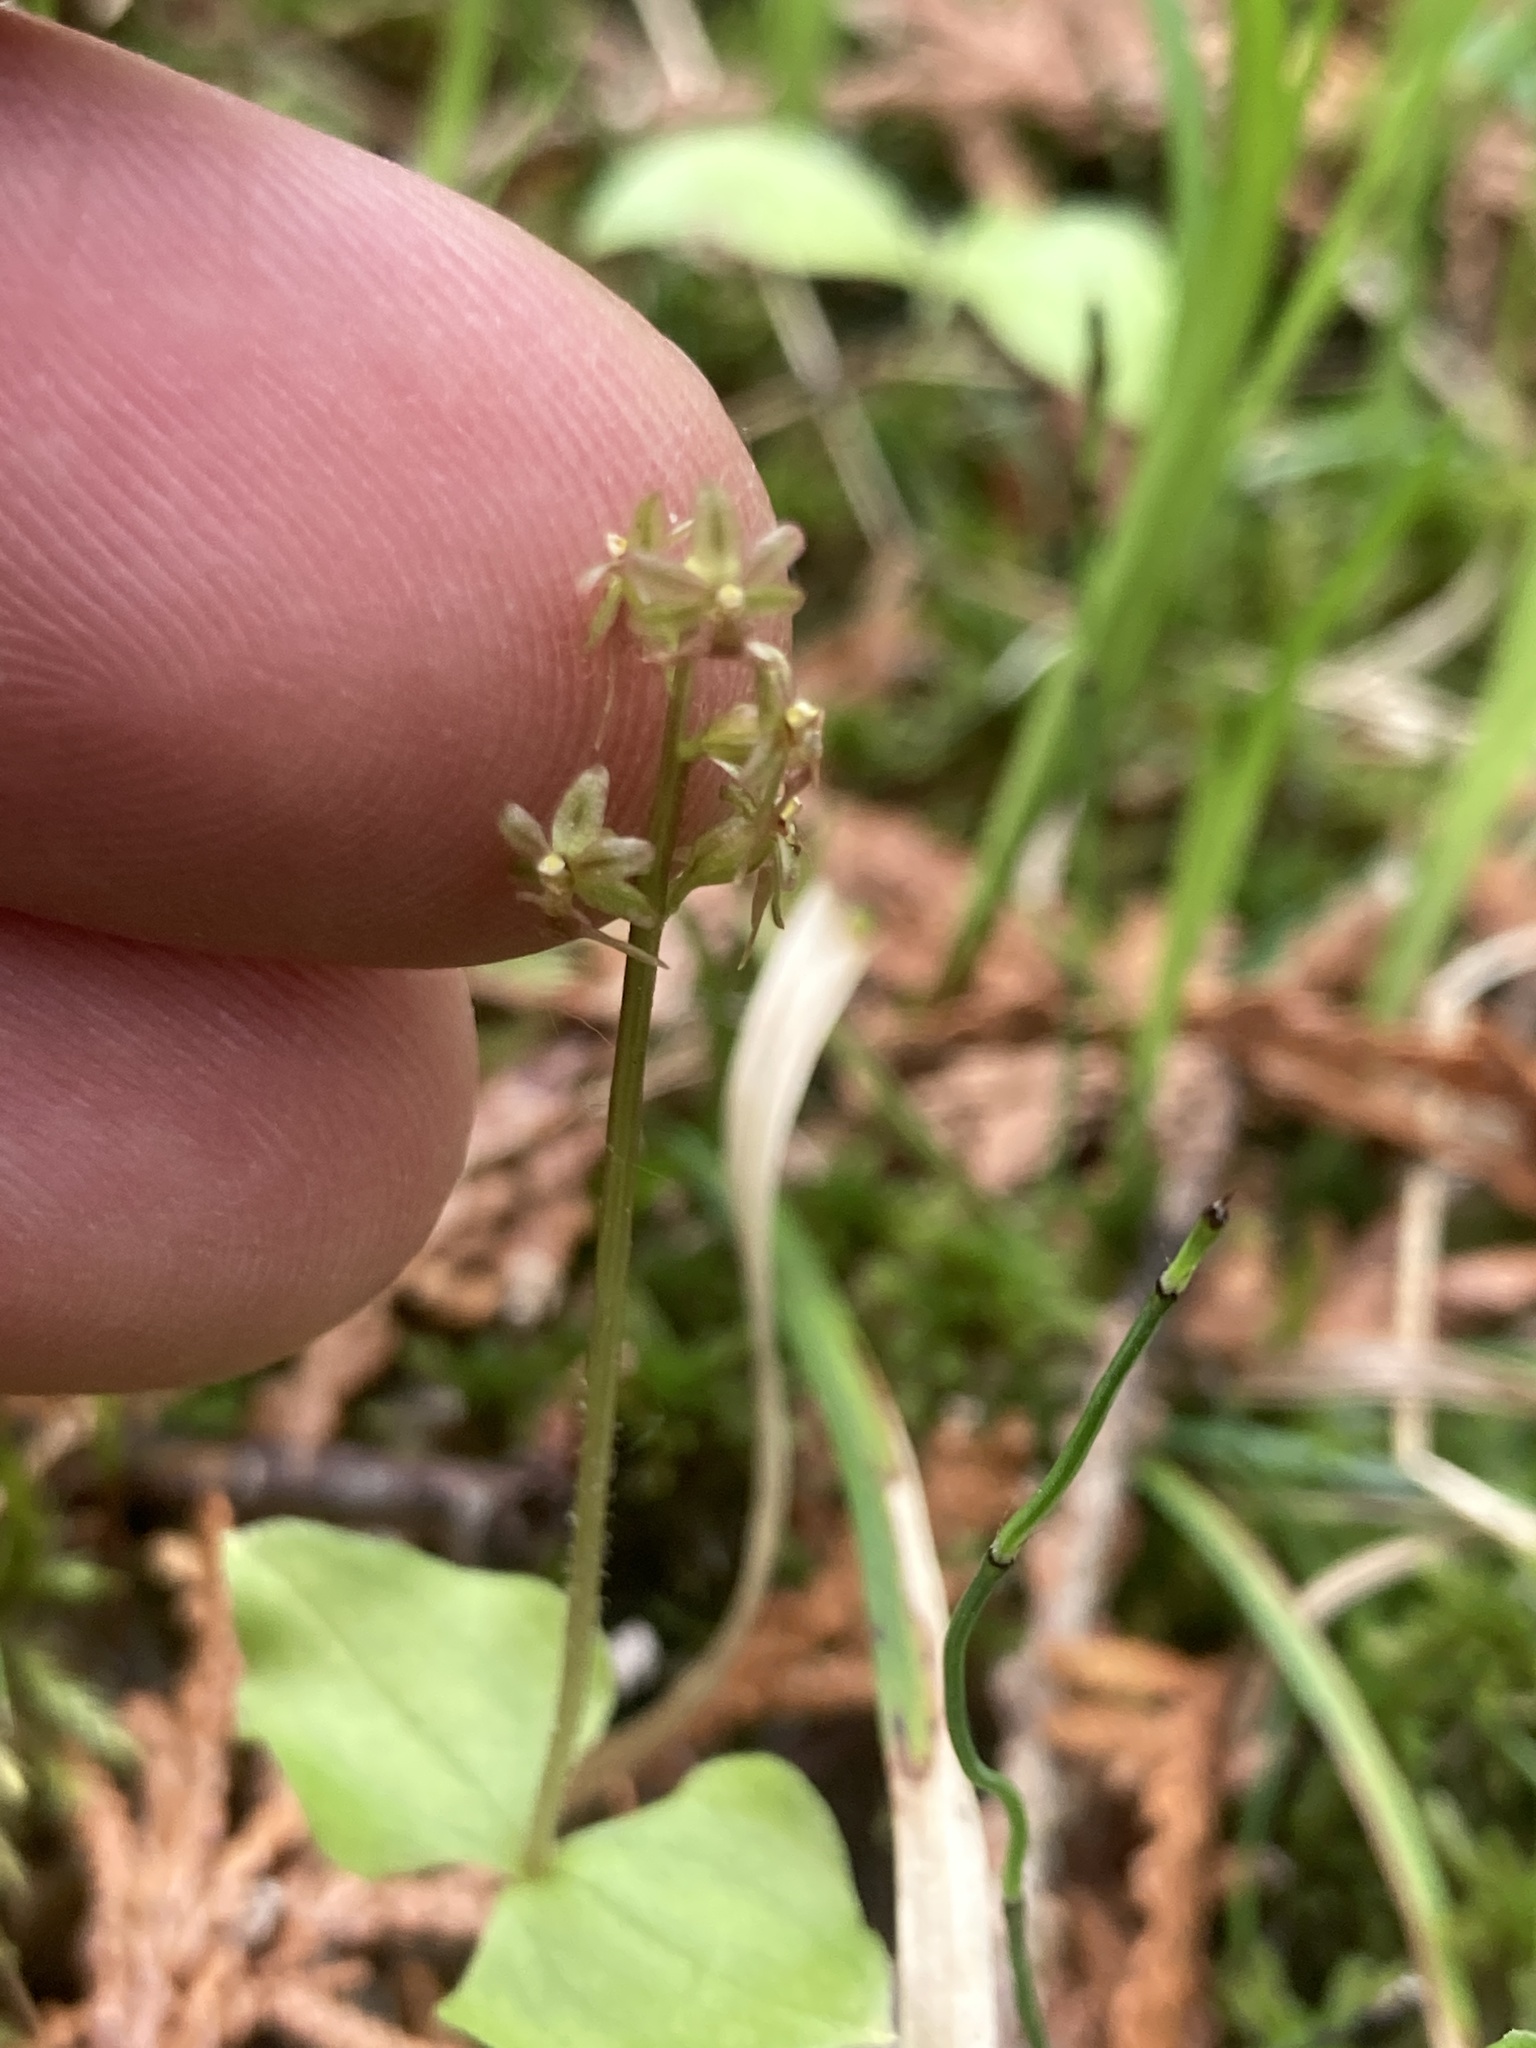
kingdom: Plantae
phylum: Tracheophyta
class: Liliopsida
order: Asparagales
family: Orchidaceae
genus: Neottia
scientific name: Neottia cordata
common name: Lesser twayblade
